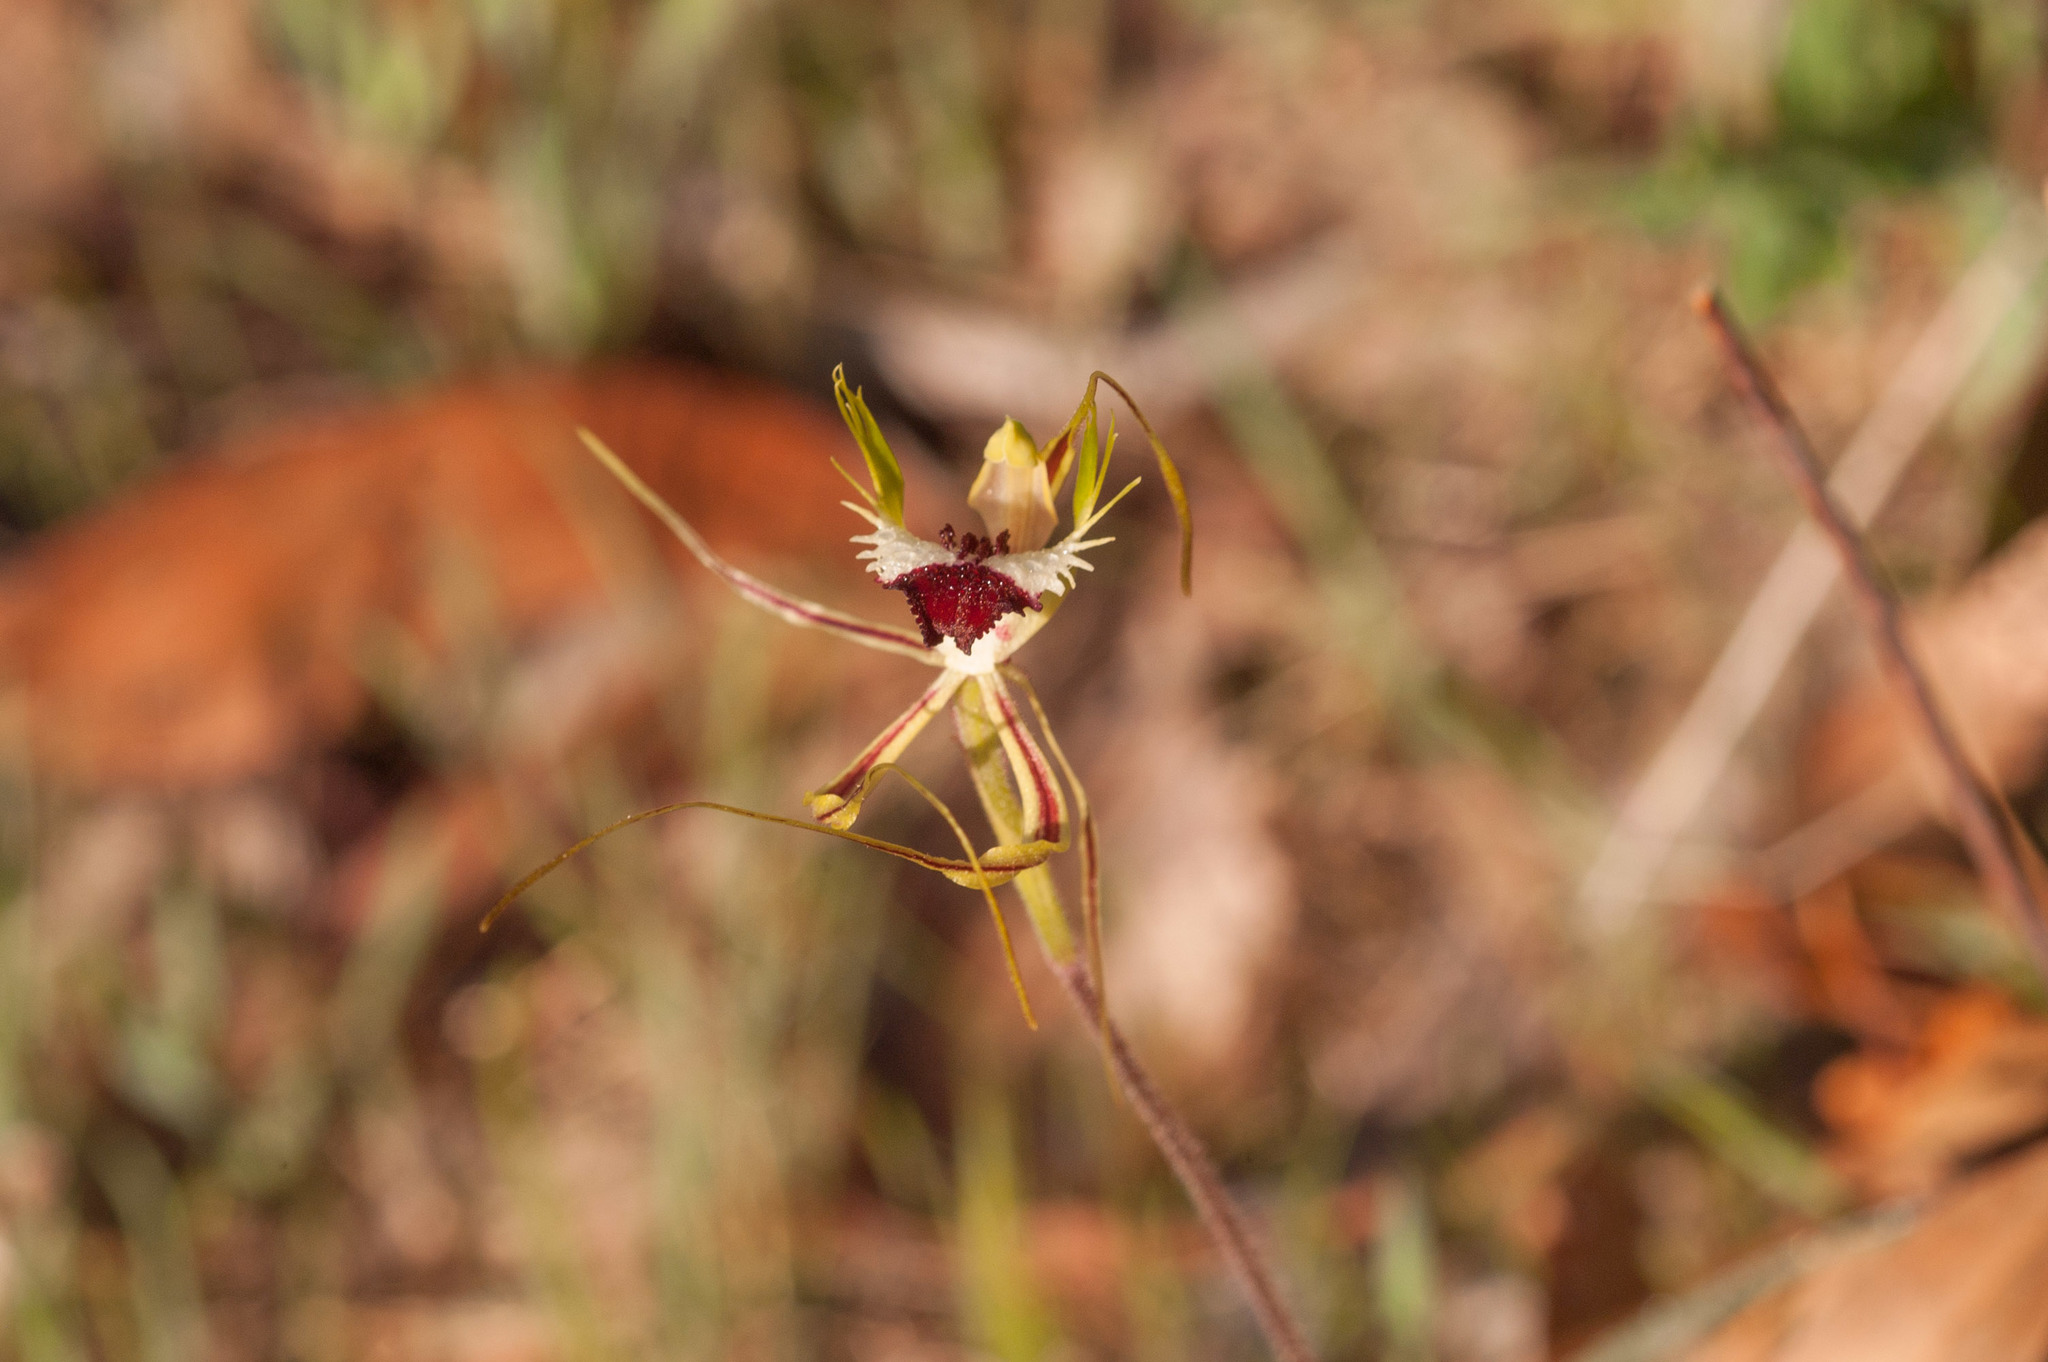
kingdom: Plantae
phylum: Tracheophyta
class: Liliopsida
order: Asparagales
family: Orchidaceae
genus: Caladenia
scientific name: Caladenia tentaculata
